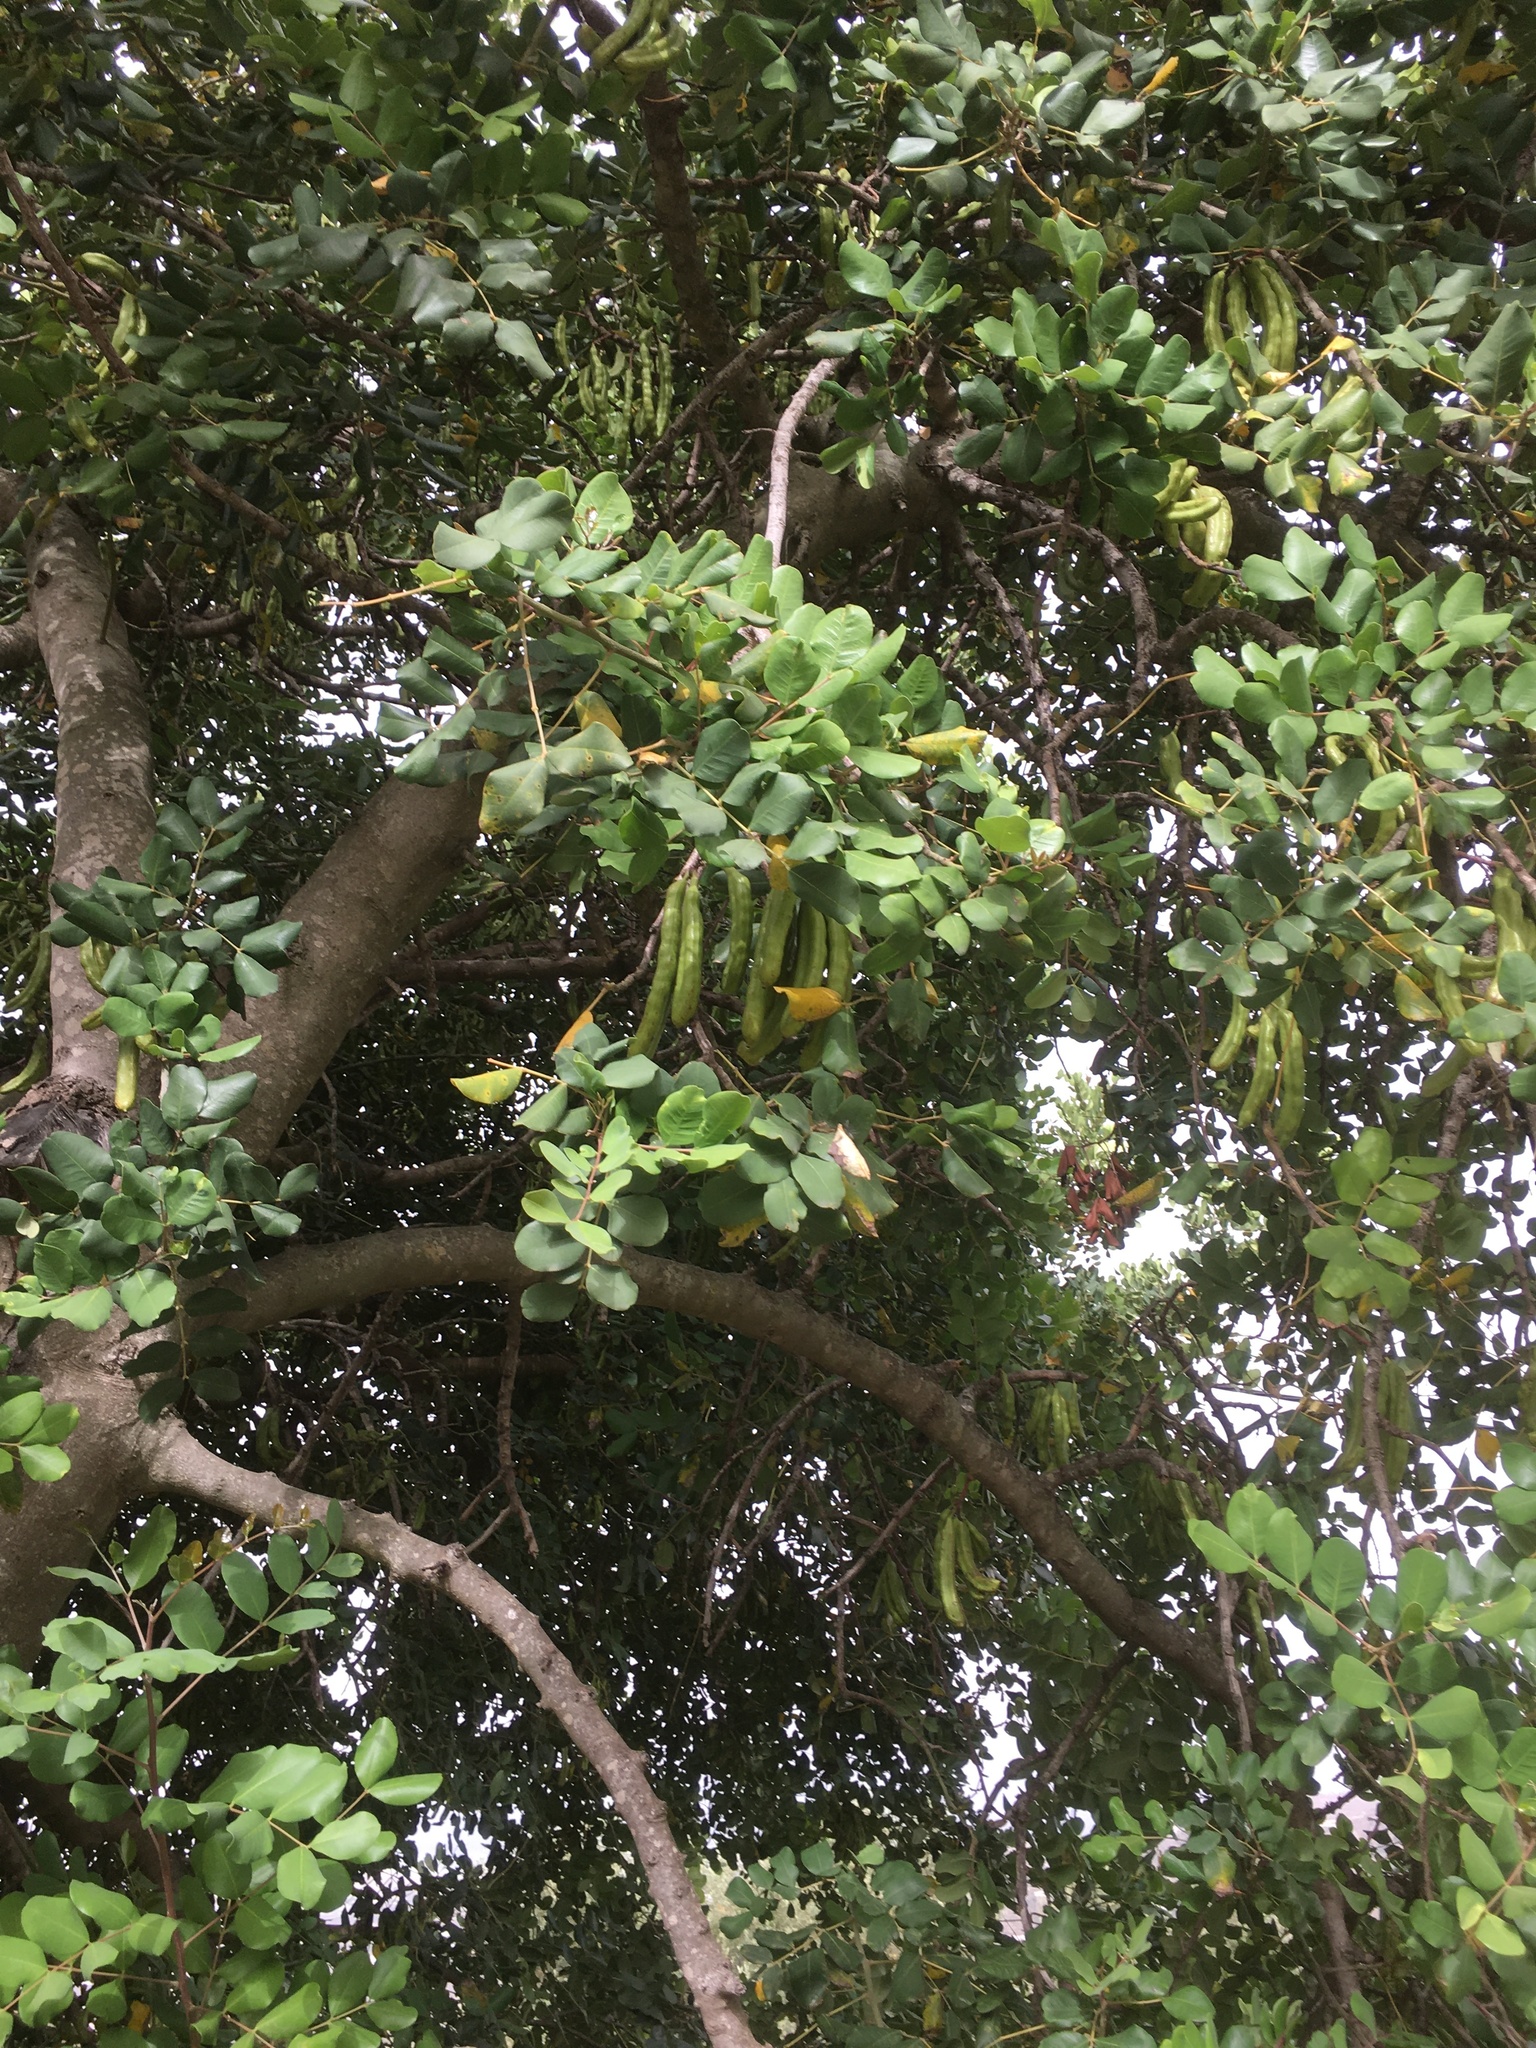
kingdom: Plantae
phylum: Tracheophyta
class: Magnoliopsida
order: Fabales
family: Fabaceae
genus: Ceratonia
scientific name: Ceratonia siliqua
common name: Carob
